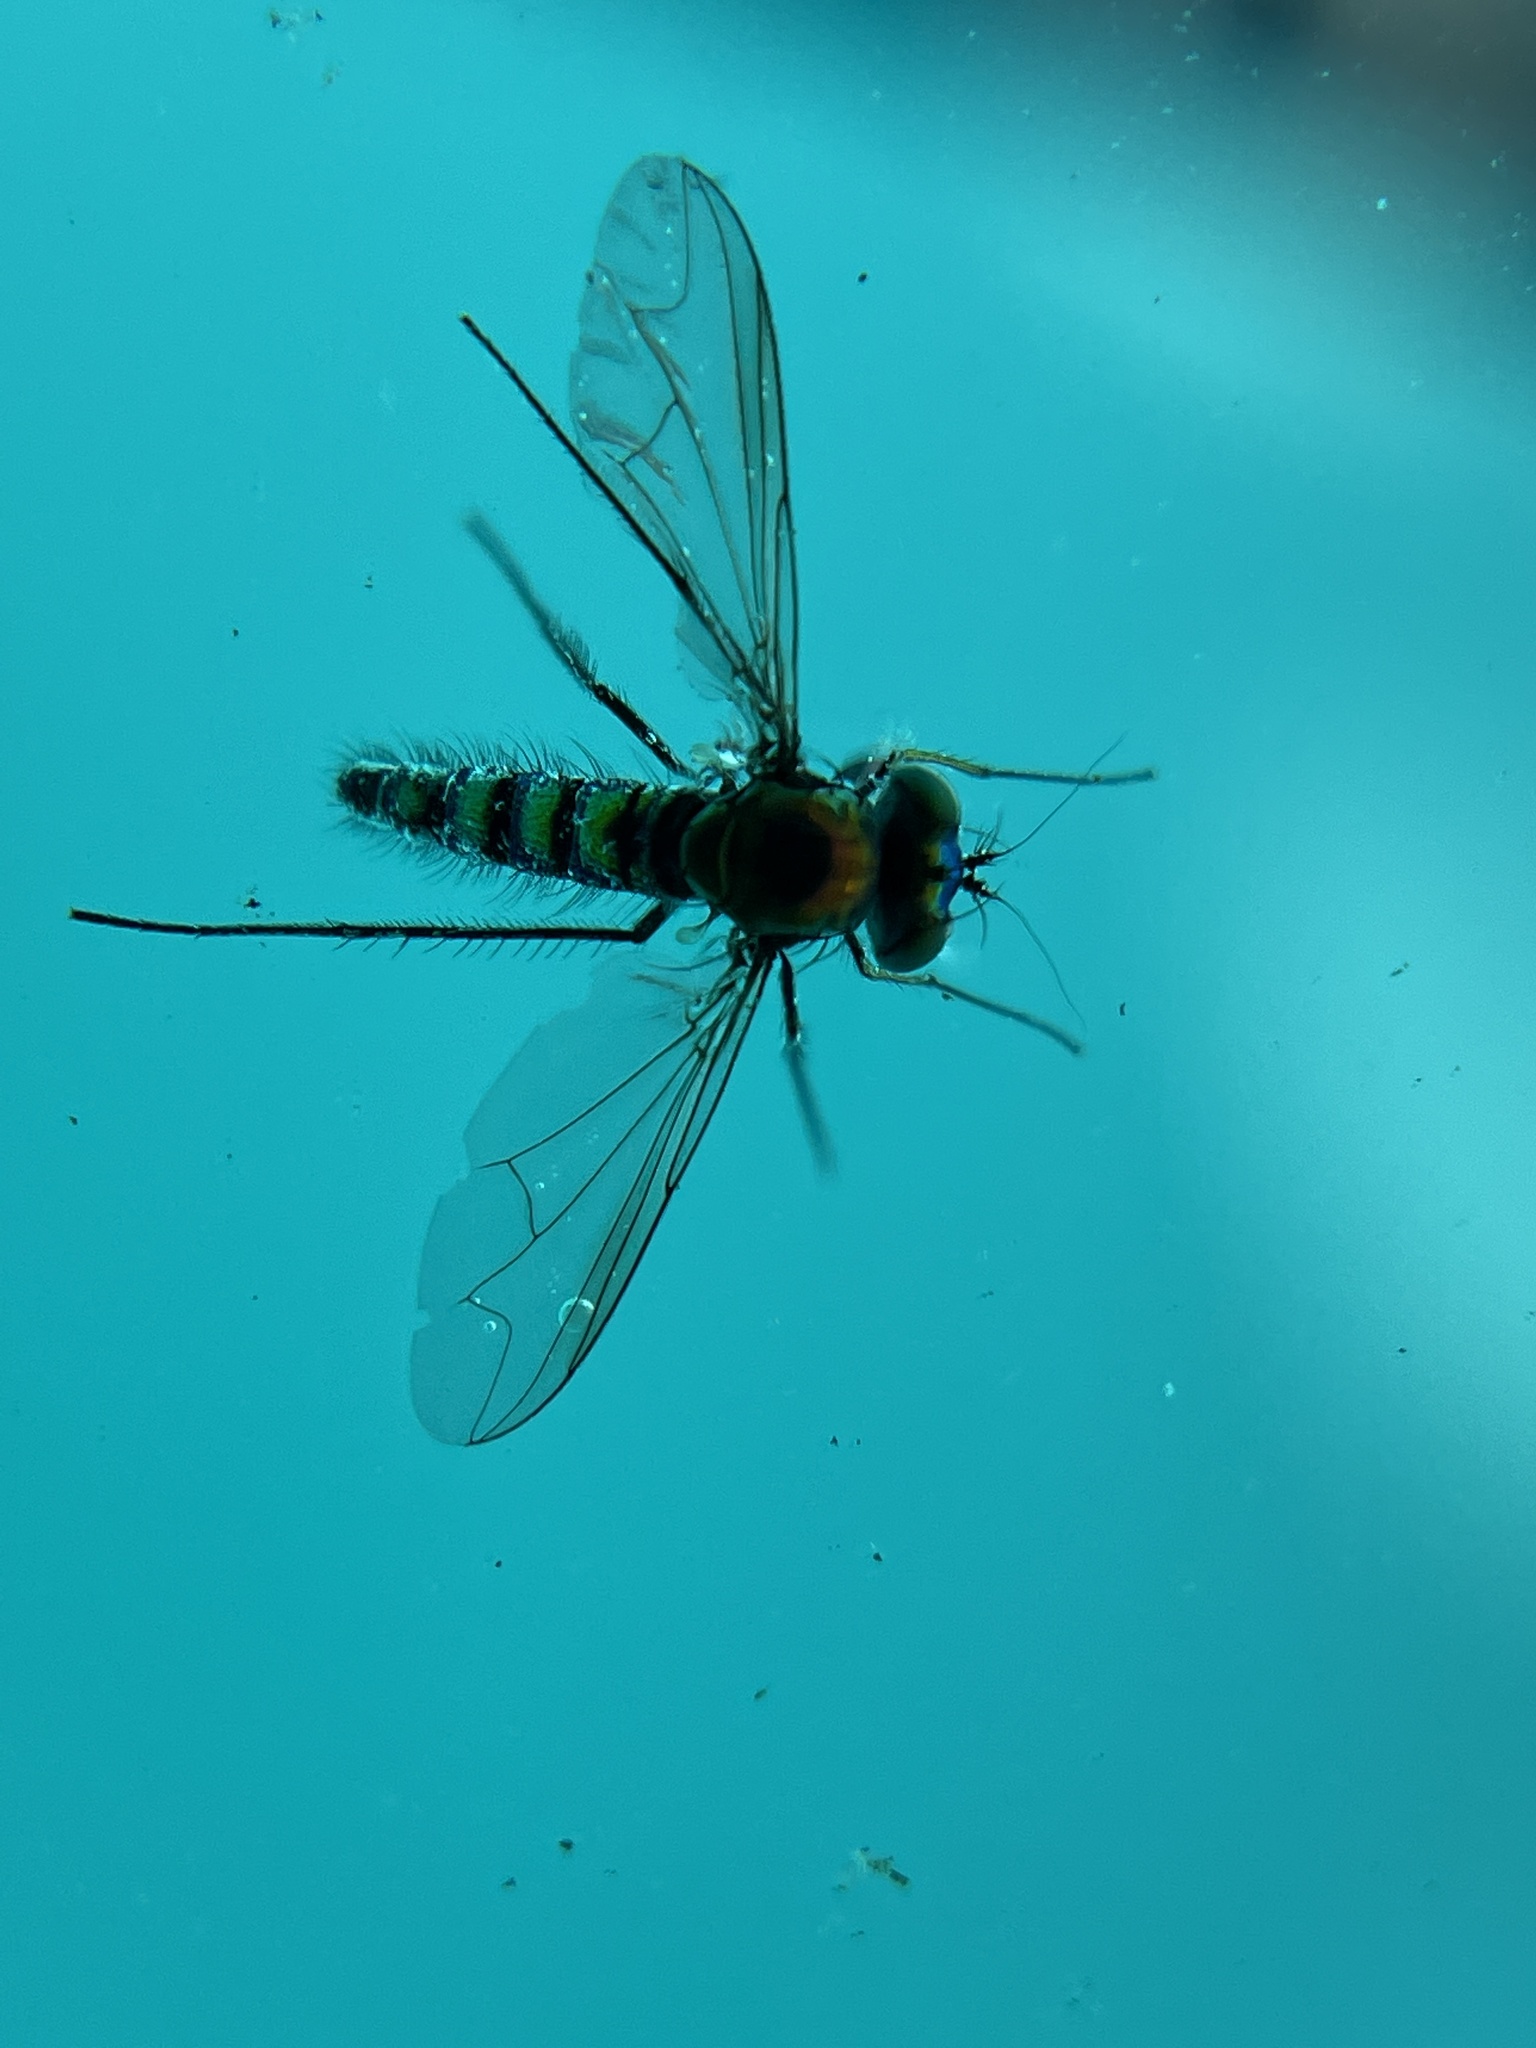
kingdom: Animalia
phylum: Arthropoda
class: Insecta
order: Diptera
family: Dolichopodidae
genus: Condylostylus
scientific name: Condylostylus longicornis
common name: Long-legged fly
